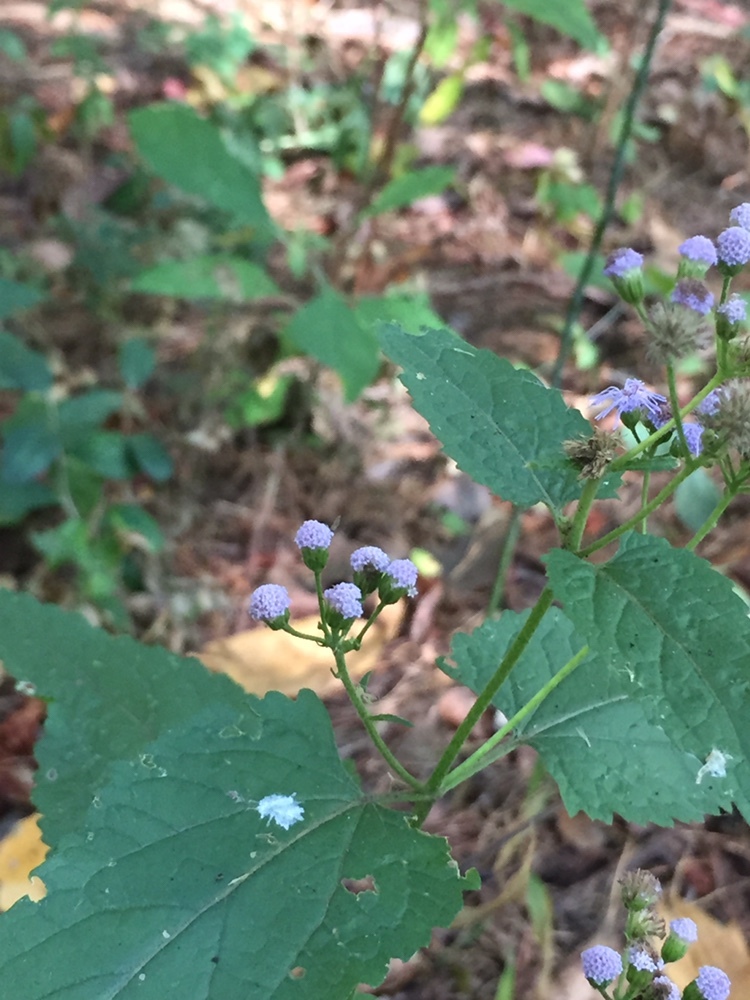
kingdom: Plantae
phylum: Tracheophyta
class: Magnoliopsida
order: Asterales
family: Asteraceae
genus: Conoclinium
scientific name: Conoclinium coelestinum
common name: Blue mistflower
